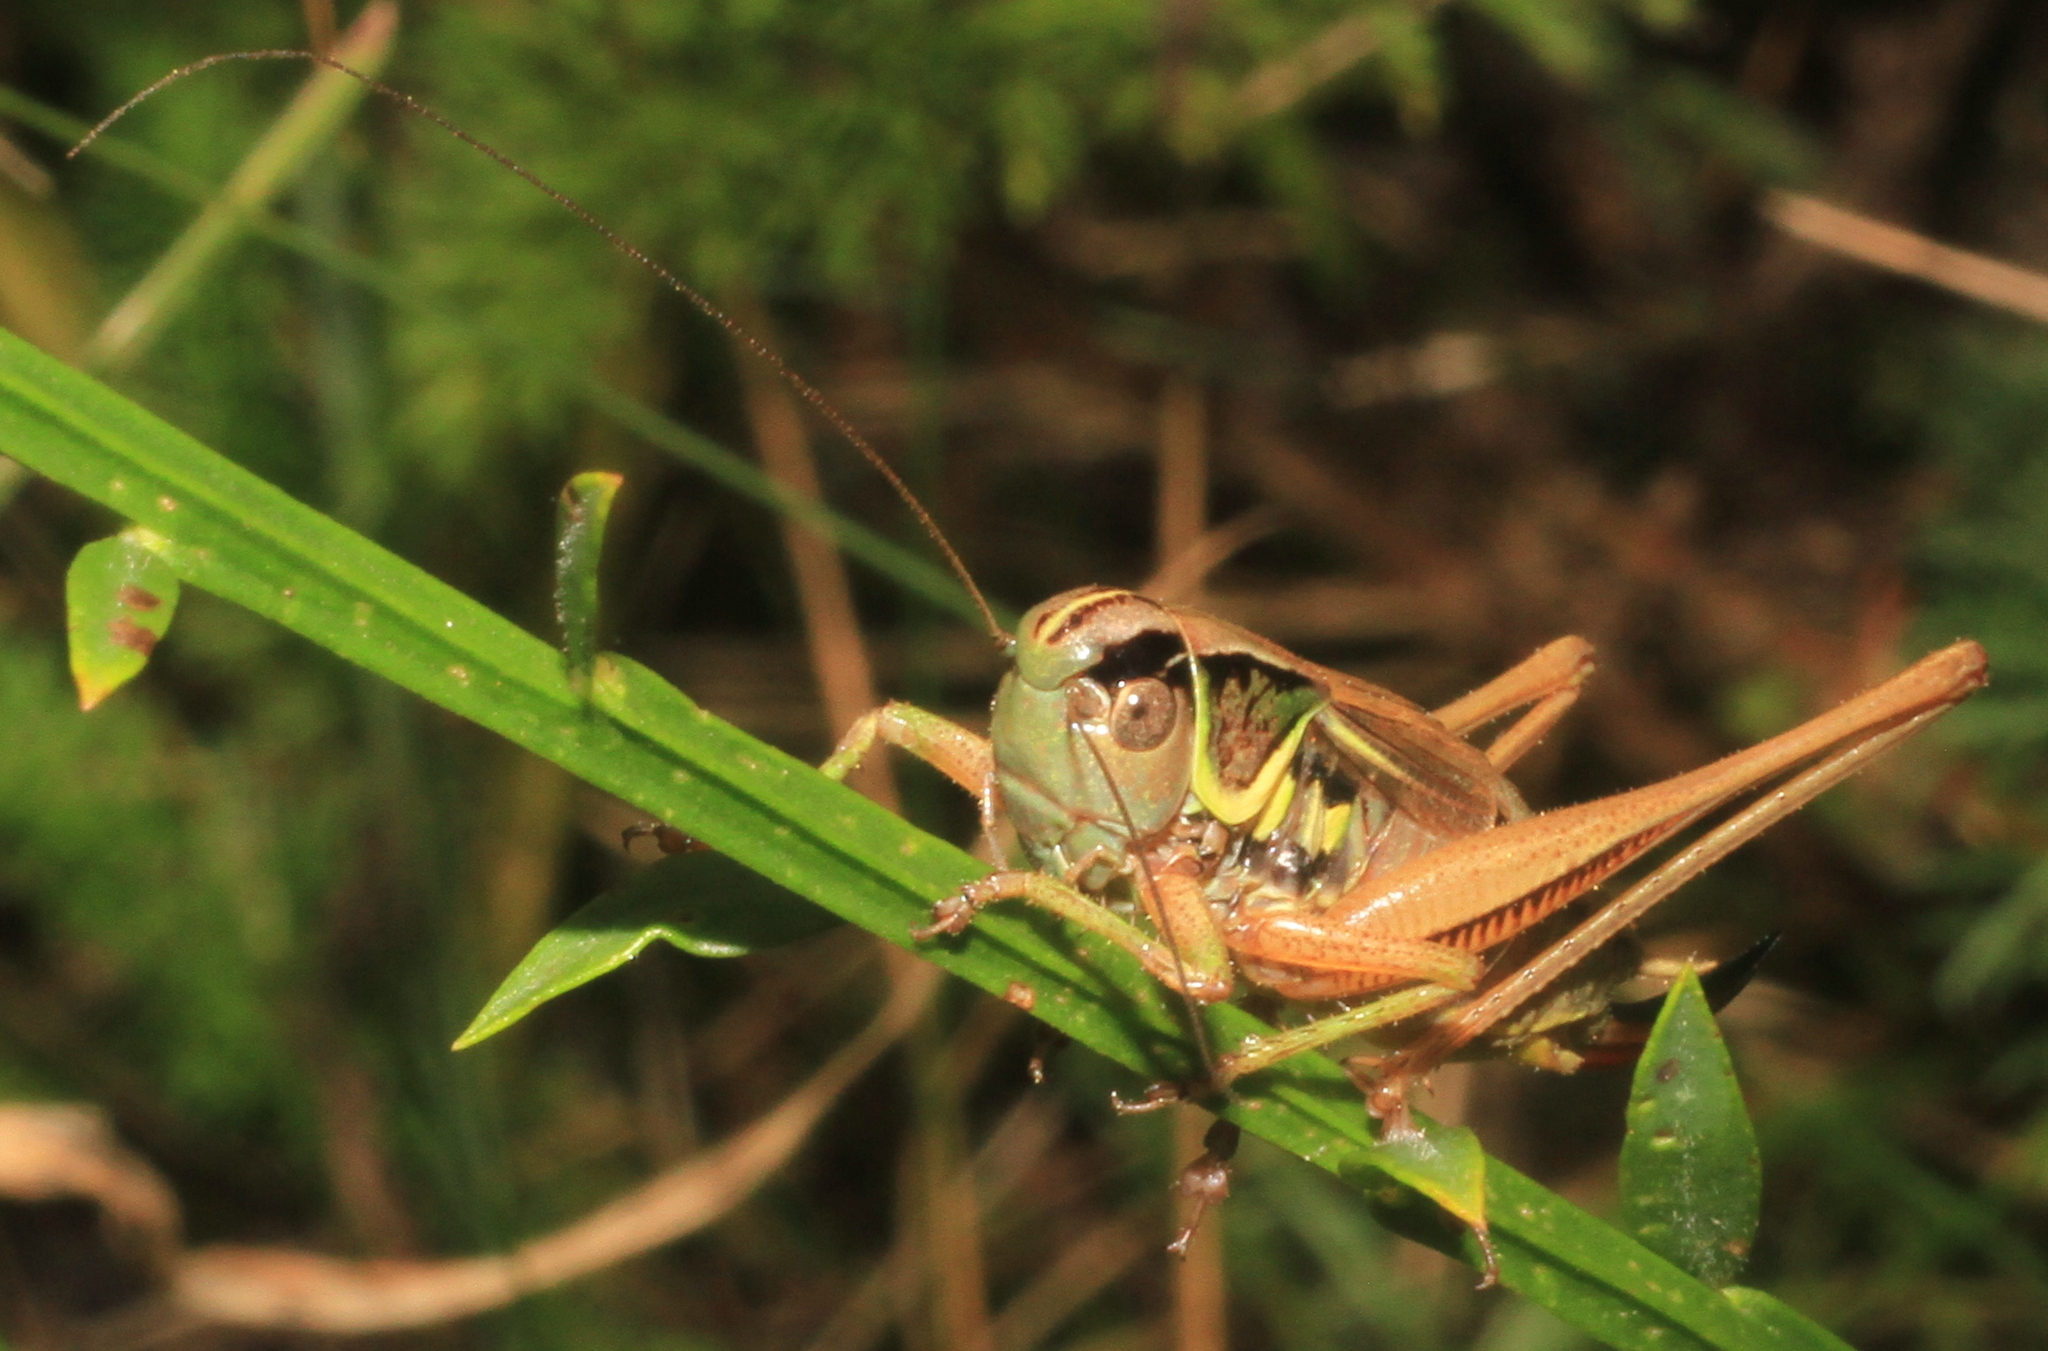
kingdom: Animalia
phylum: Arthropoda
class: Insecta
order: Orthoptera
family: Tettigoniidae
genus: Roeseliana
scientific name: Roeseliana roeselii
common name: Roesel's bush cricket
